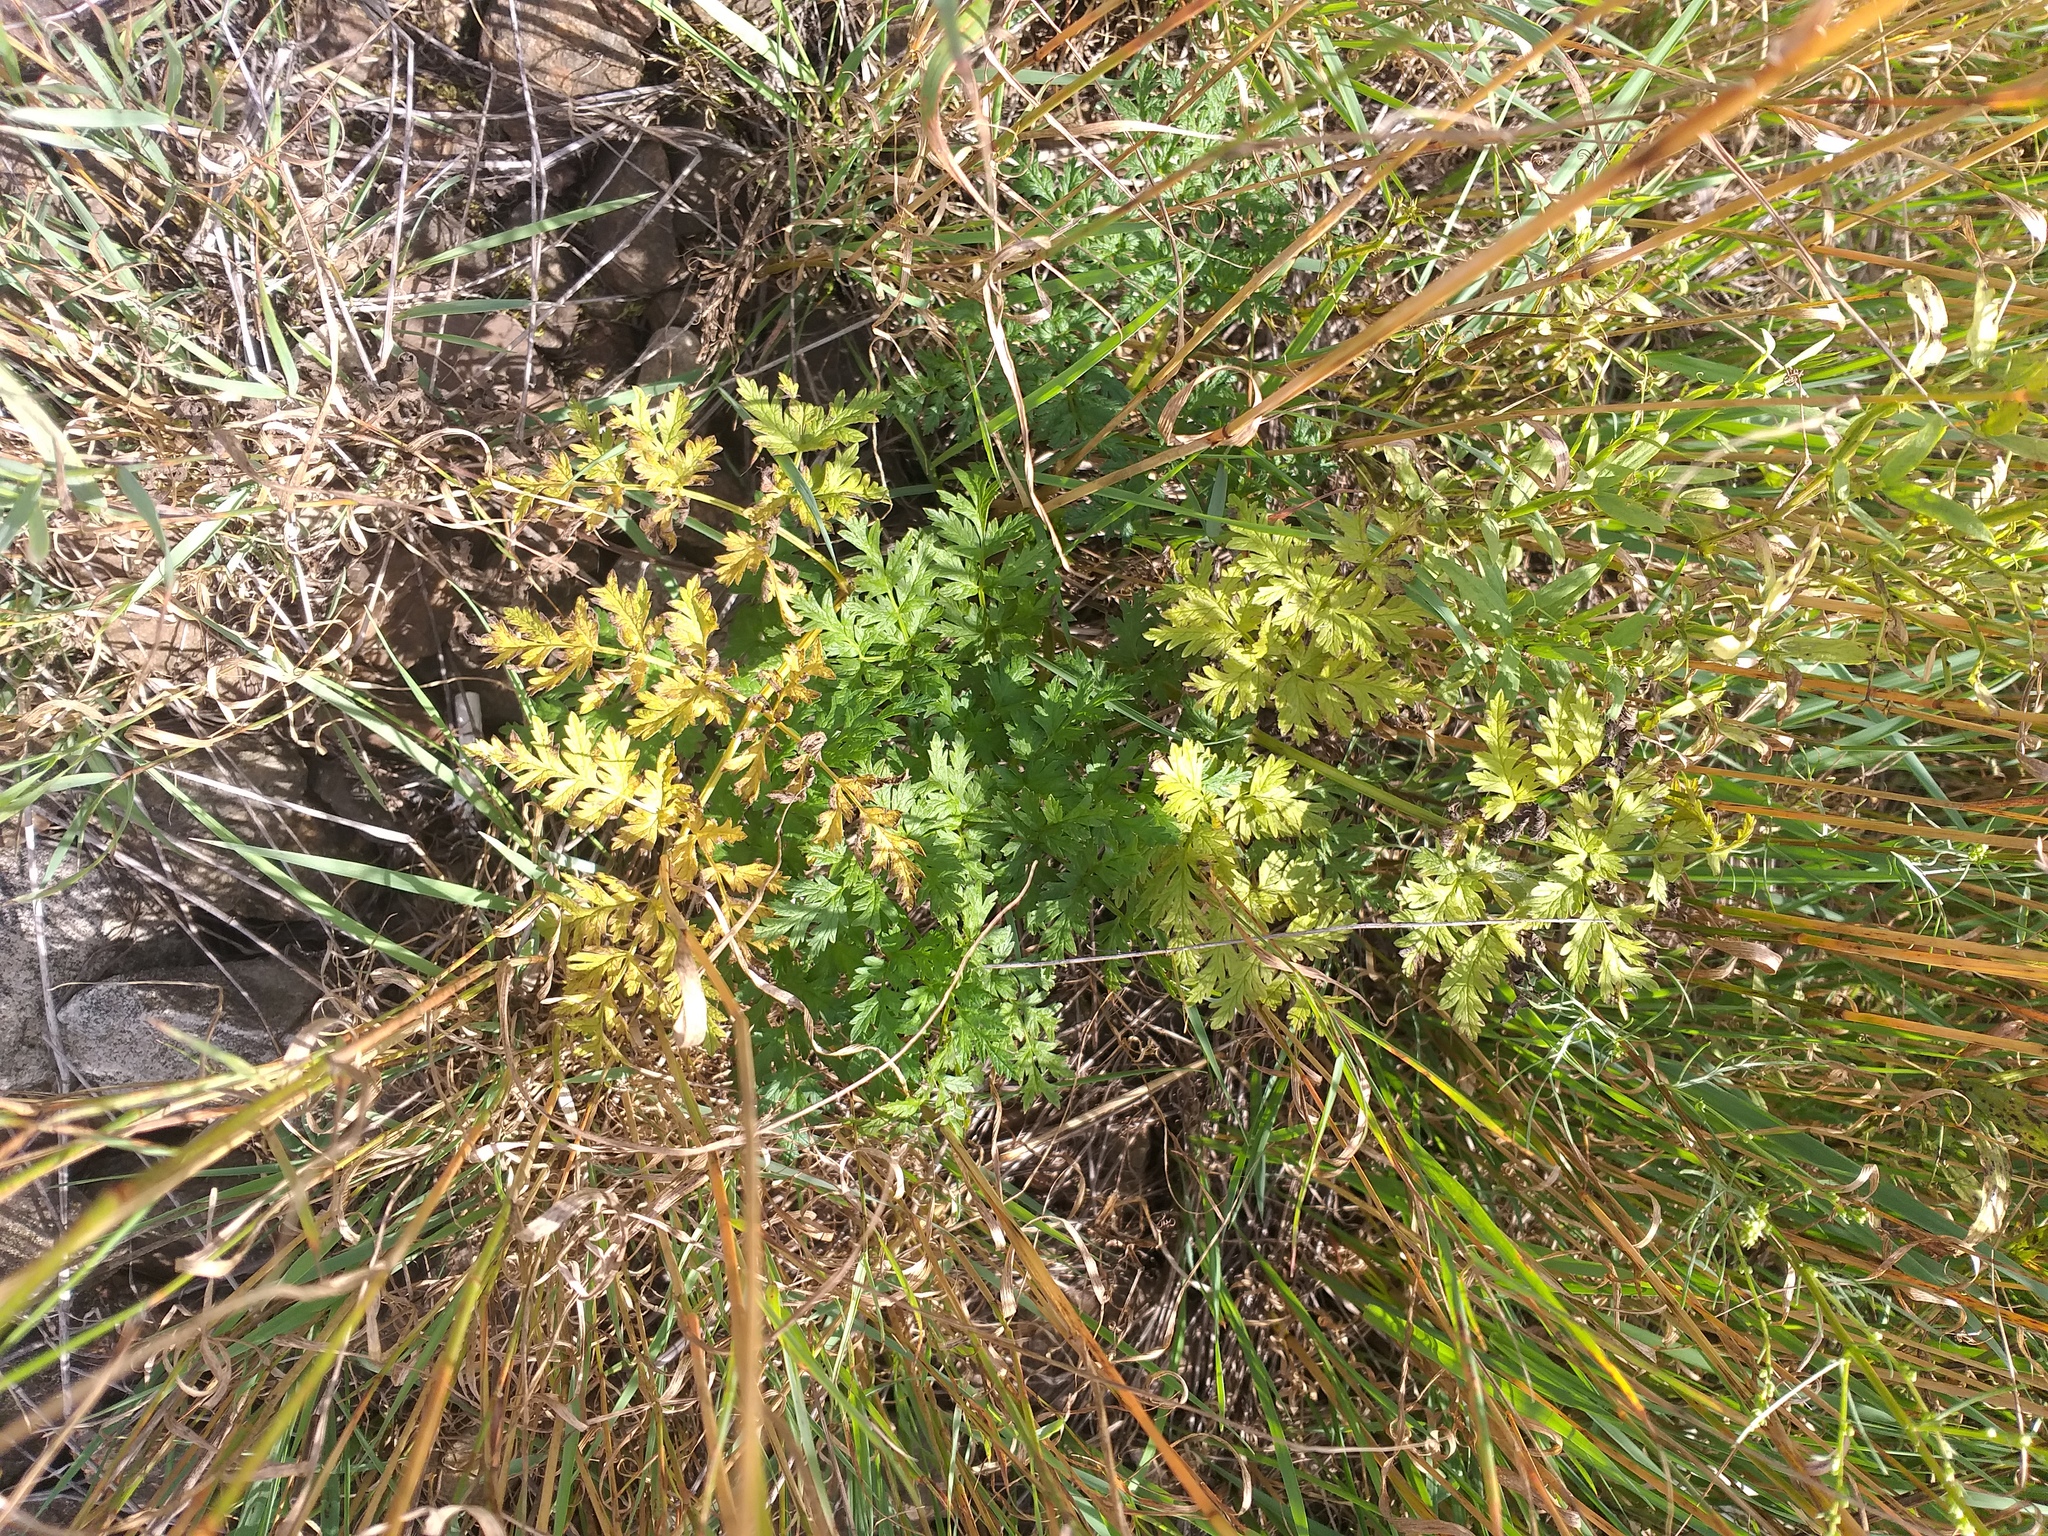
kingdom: Plantae
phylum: Tracheophyta
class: Magnoliopsida
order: Apiales
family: Apiaceae
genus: Anthriscus
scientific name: Anthriscus sylvestris
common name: Cow parsley
